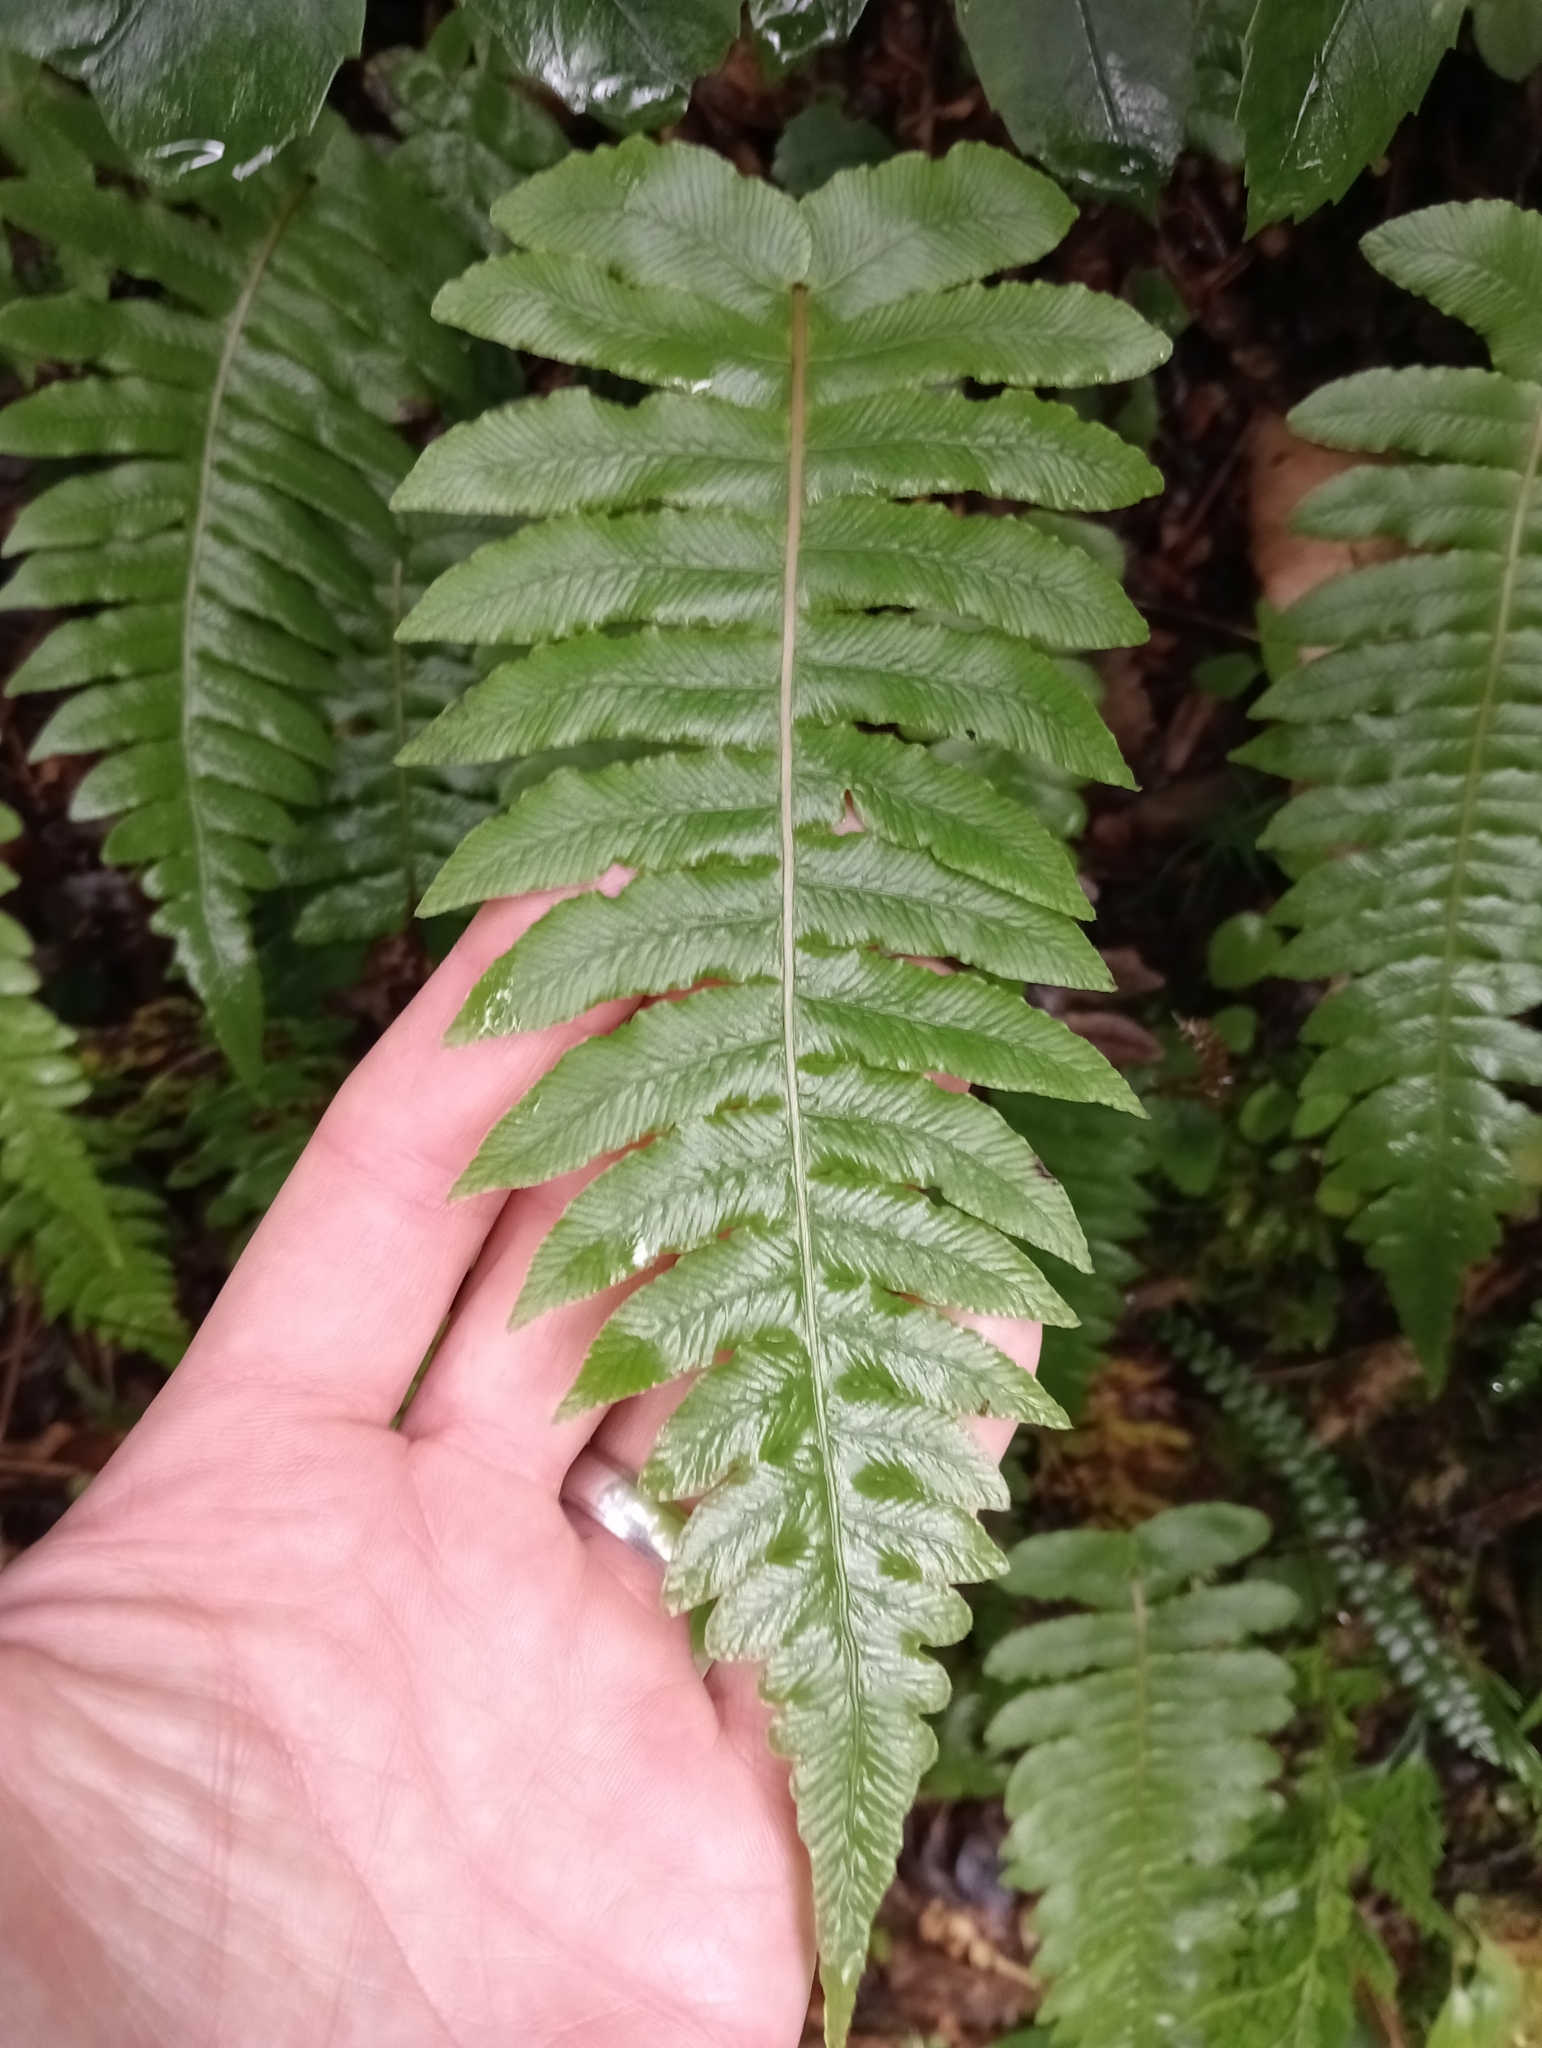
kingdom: Plantae
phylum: Tracheophyta
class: Polypodiopsida
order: Polypodiales
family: Blechnaceae
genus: Cranfillia
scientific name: Cranfillia deltoides
